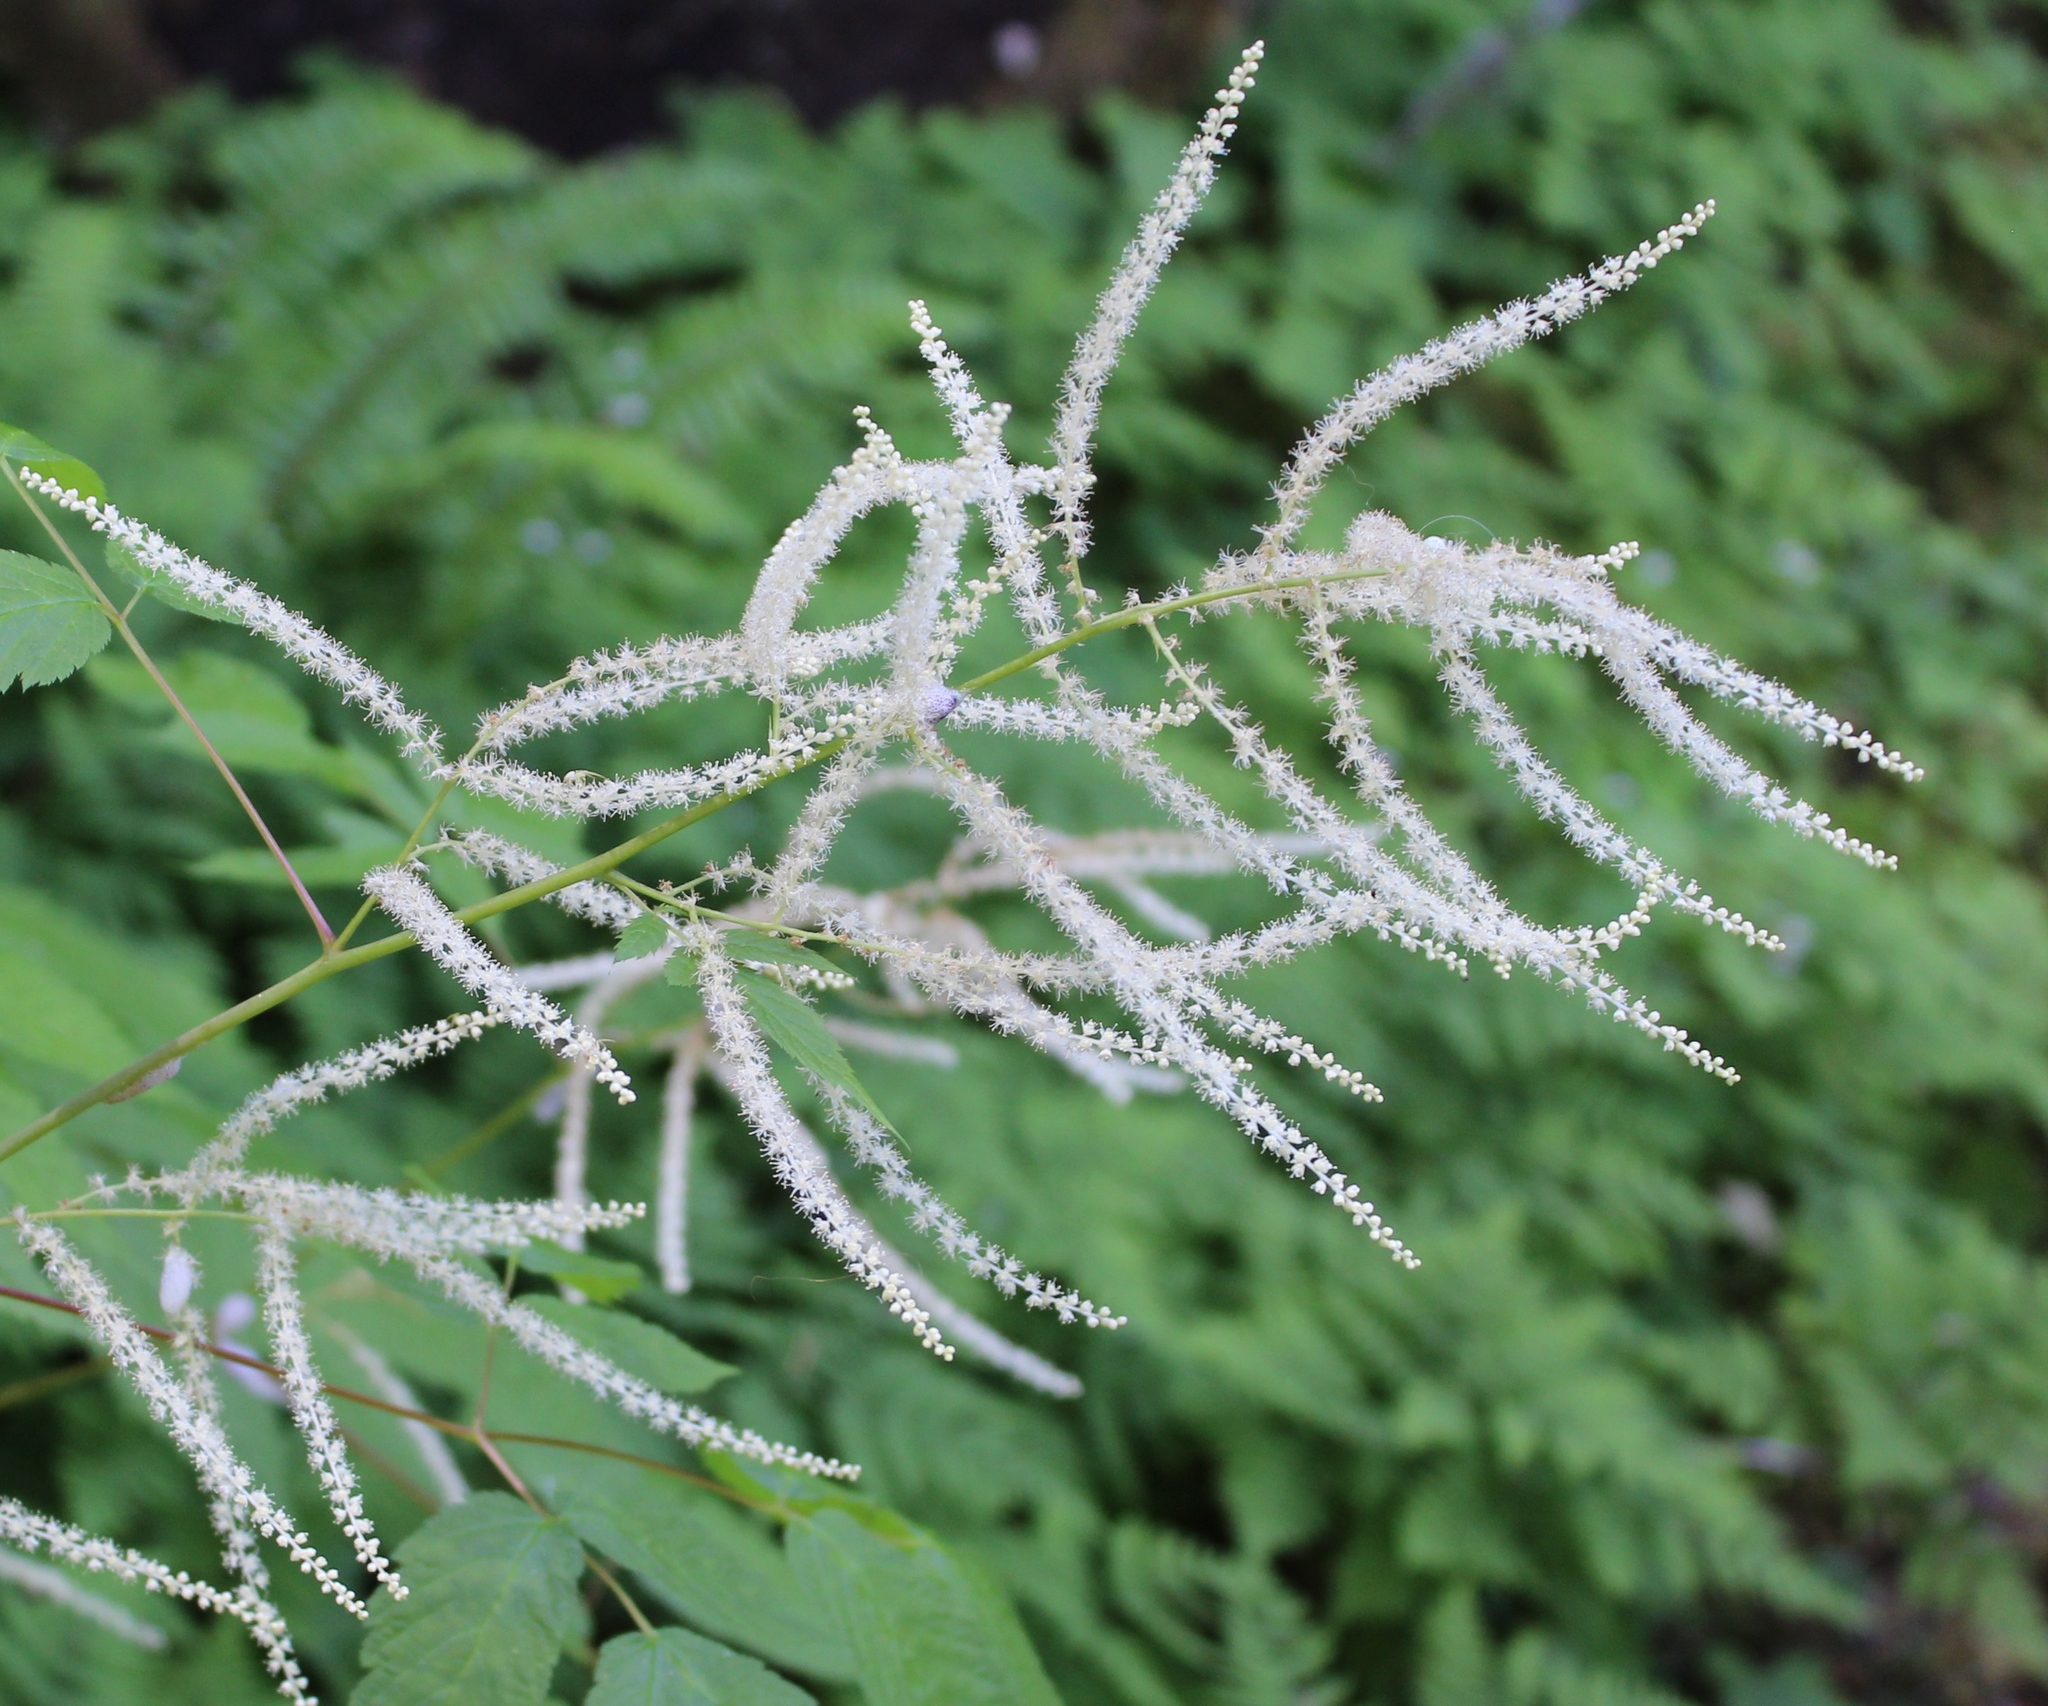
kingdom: Plantae
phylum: Tracheophyta
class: Magnoliopsida
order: Rosales
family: Rosaceae
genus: Aruncus
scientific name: Aruncus dioicus
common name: Buck's-beard
